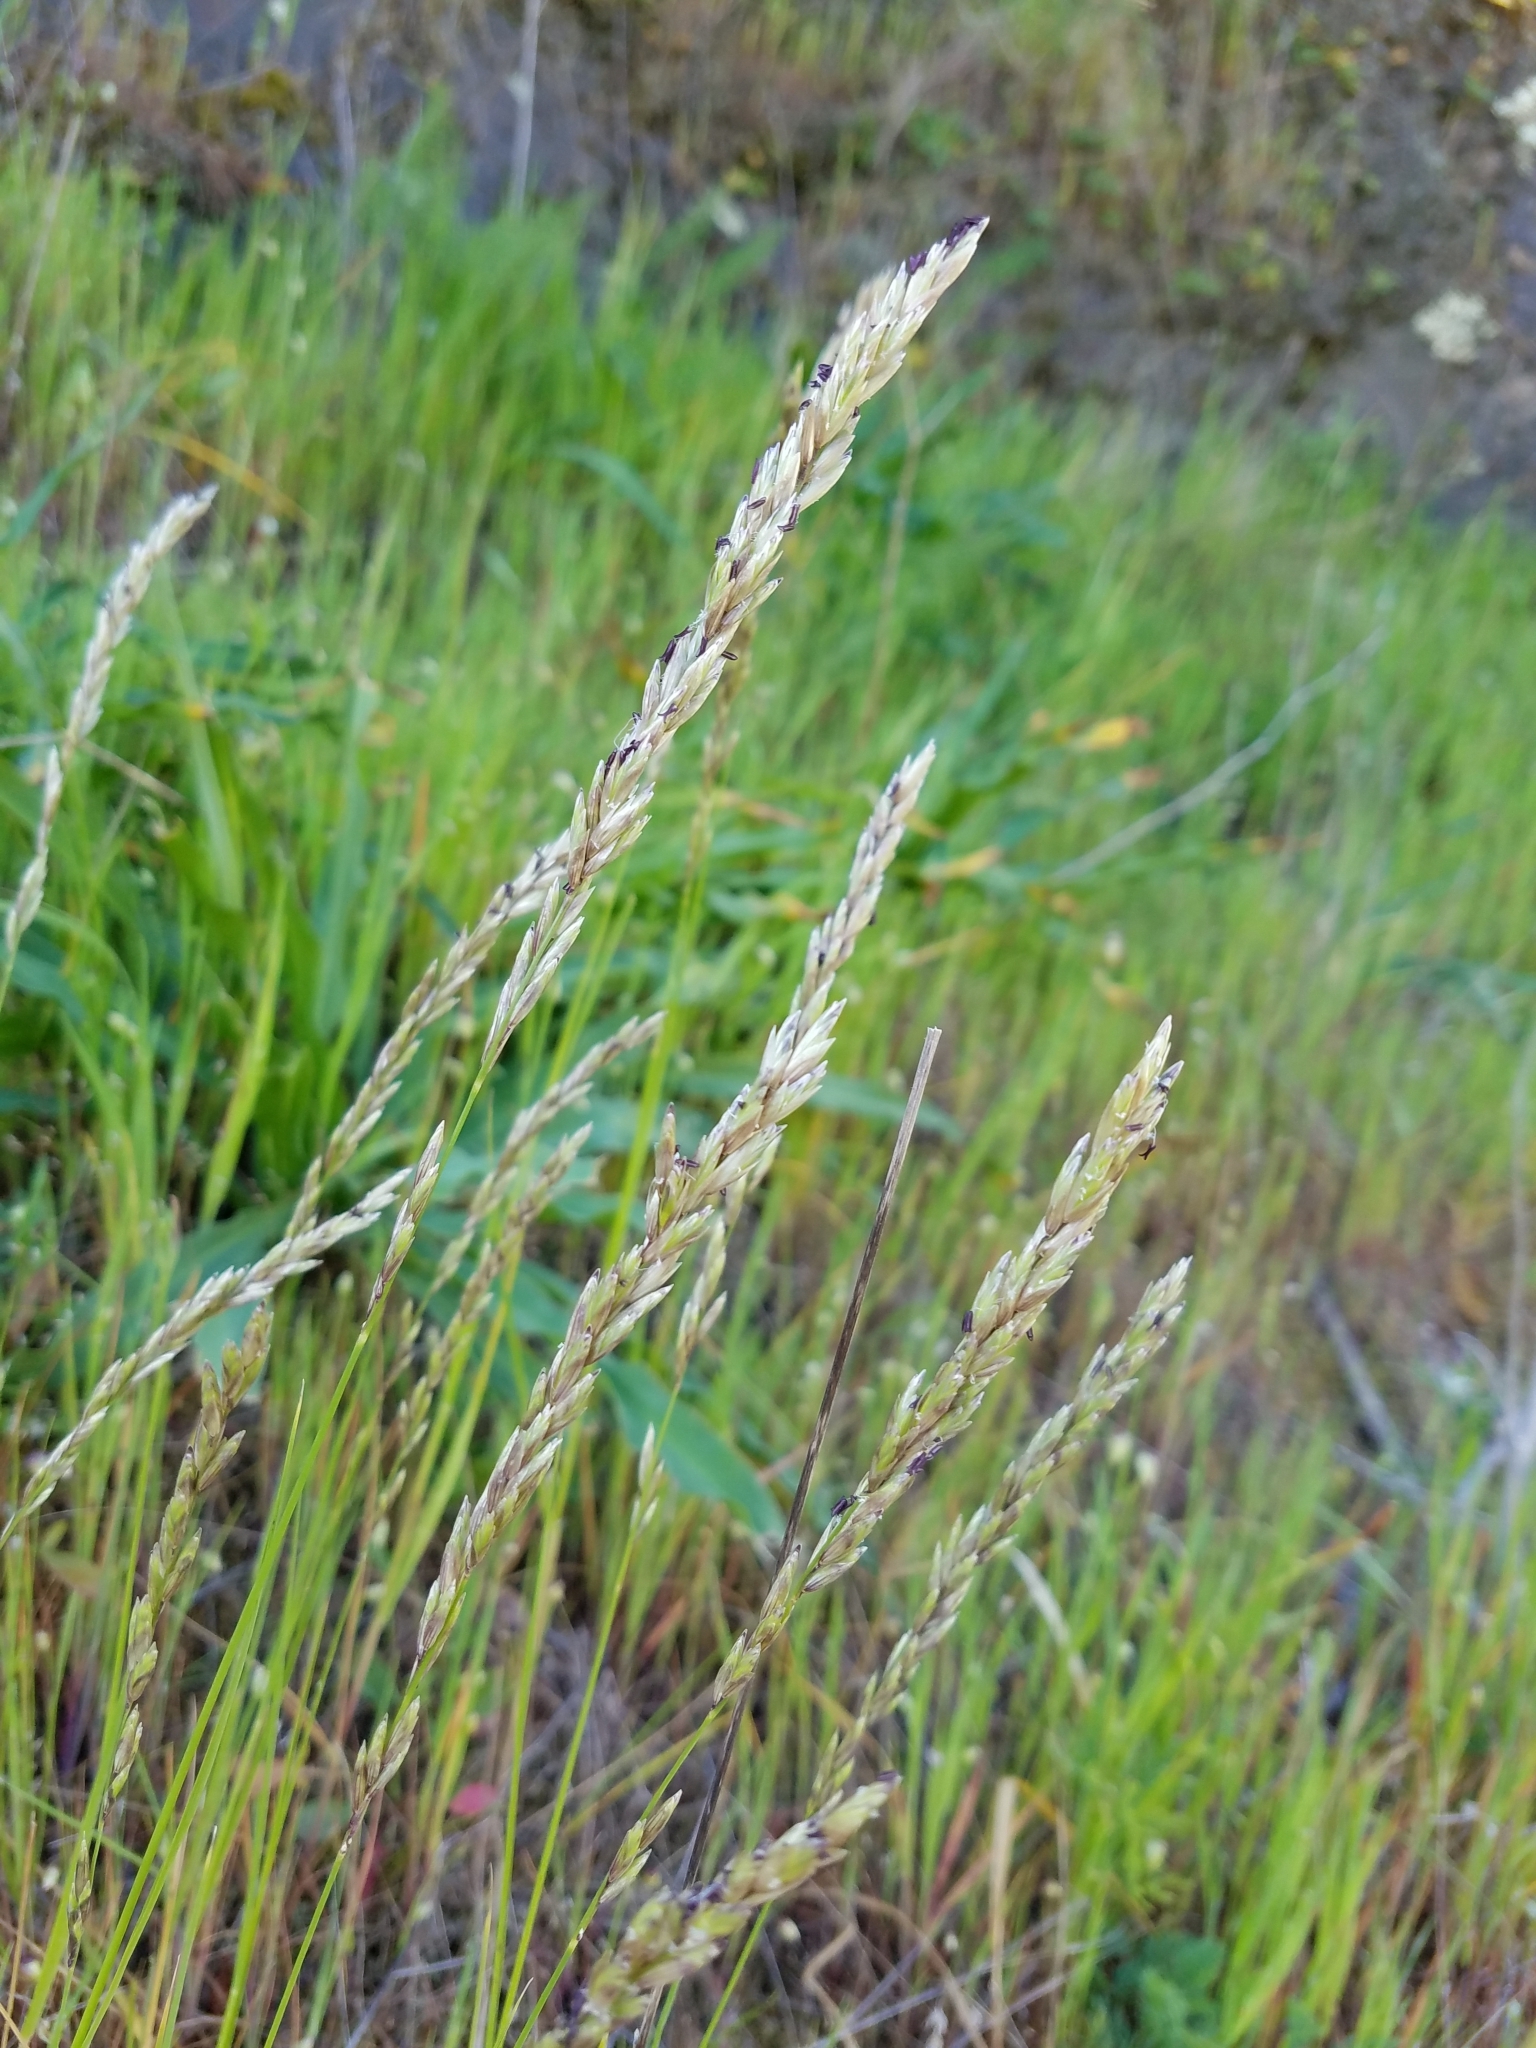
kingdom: Plantae
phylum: Tracheophyta
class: Liliopsida
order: Poales
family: Poaceae
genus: Melica
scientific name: Melica californica
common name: California melic
